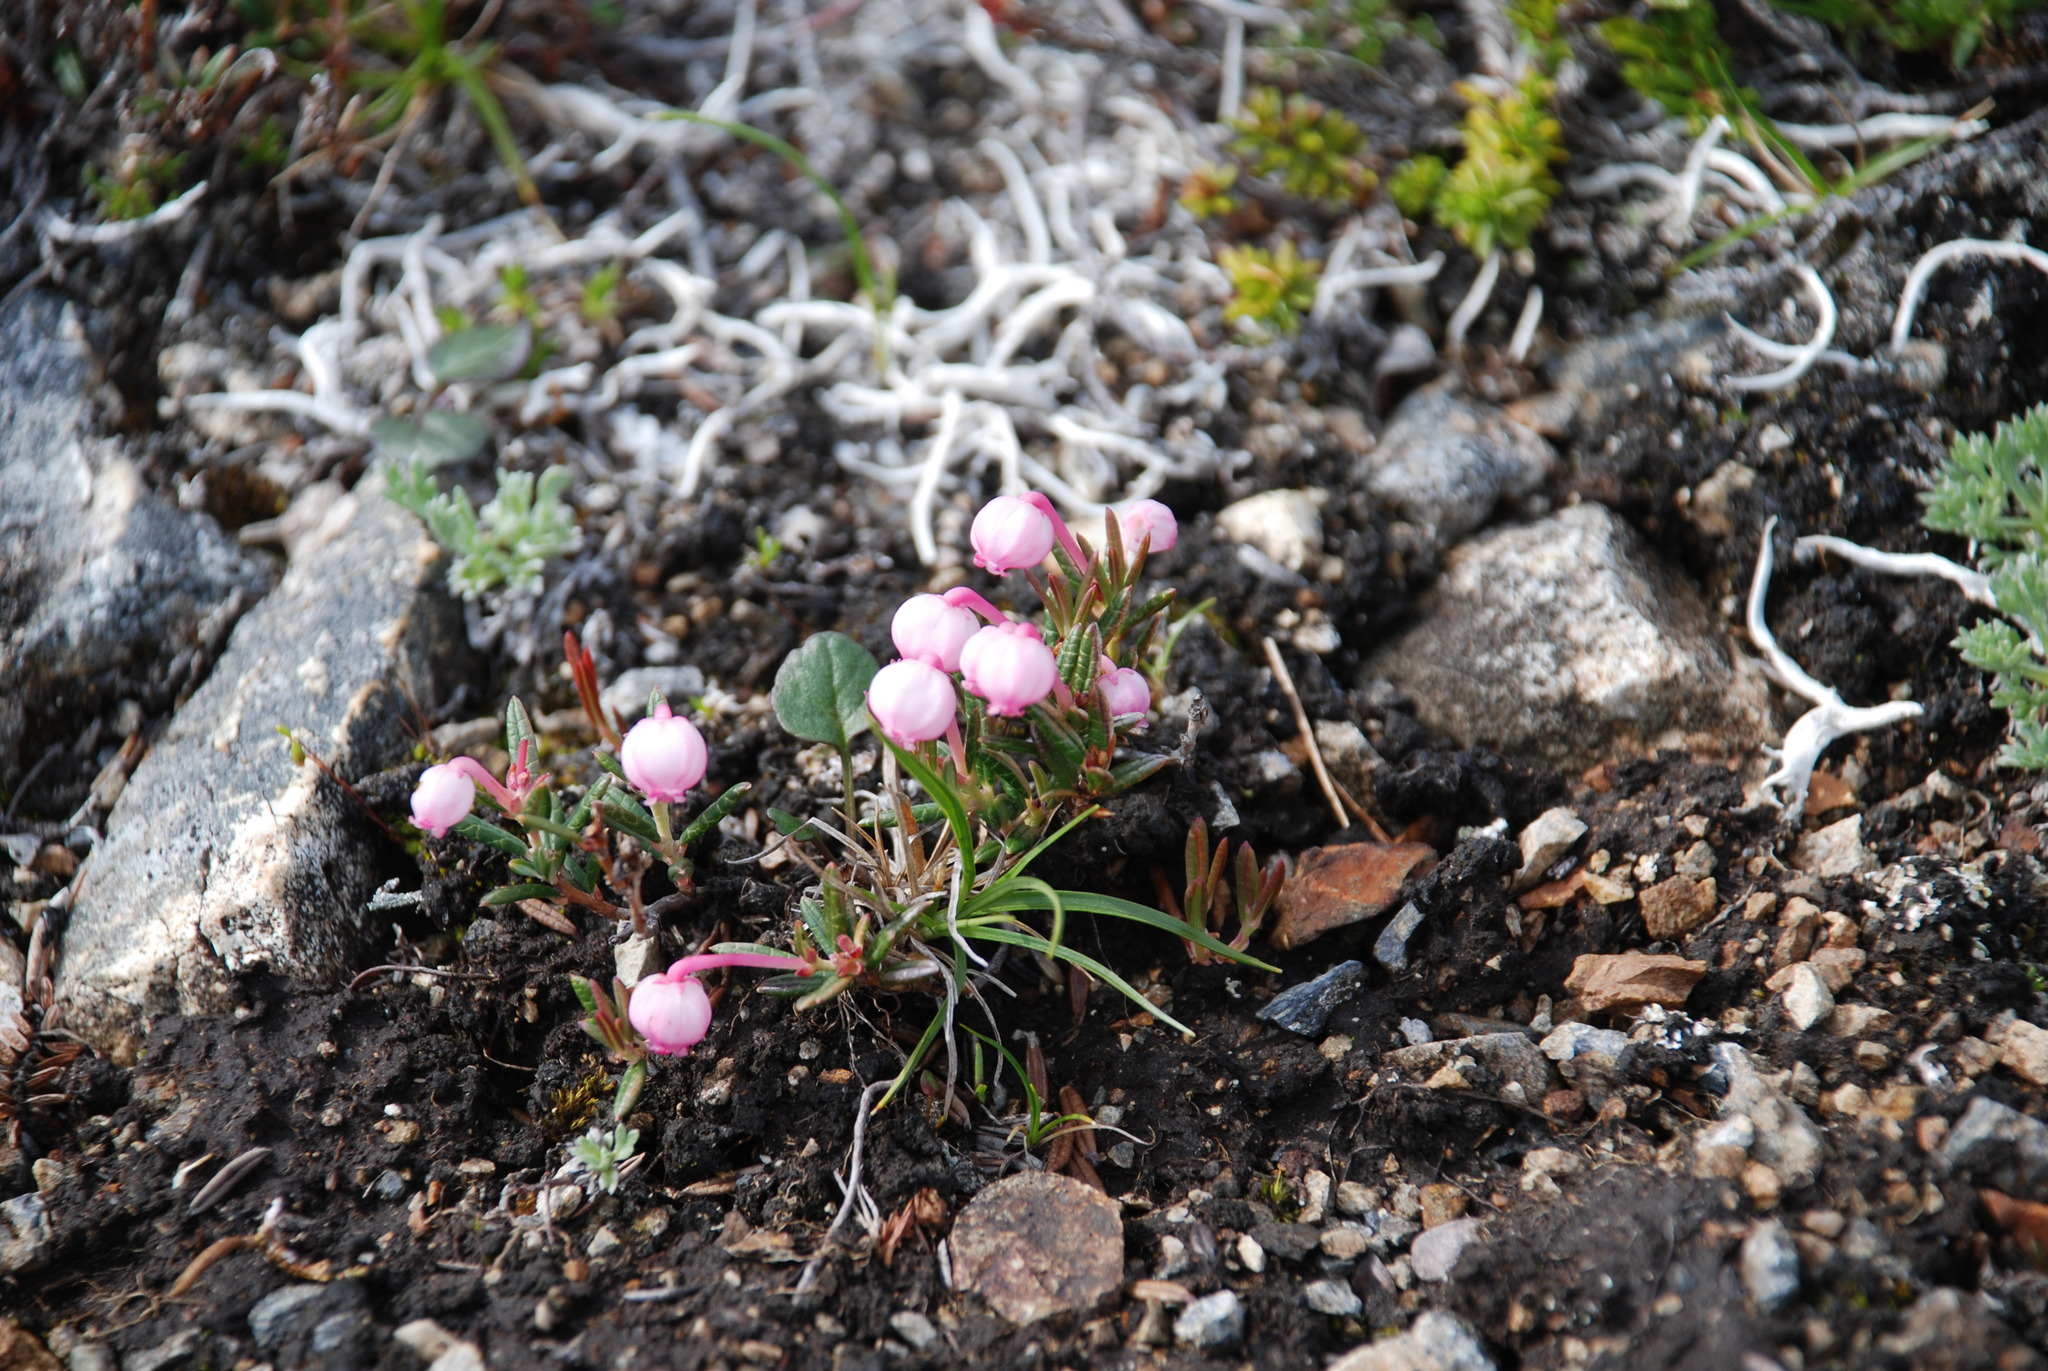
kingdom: Plantae
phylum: Tracheophyta
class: Magnoliopsida
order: Ericales
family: Ericaceae
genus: Andromeda
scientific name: Andromeda polifolia
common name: Bog-rosemary
